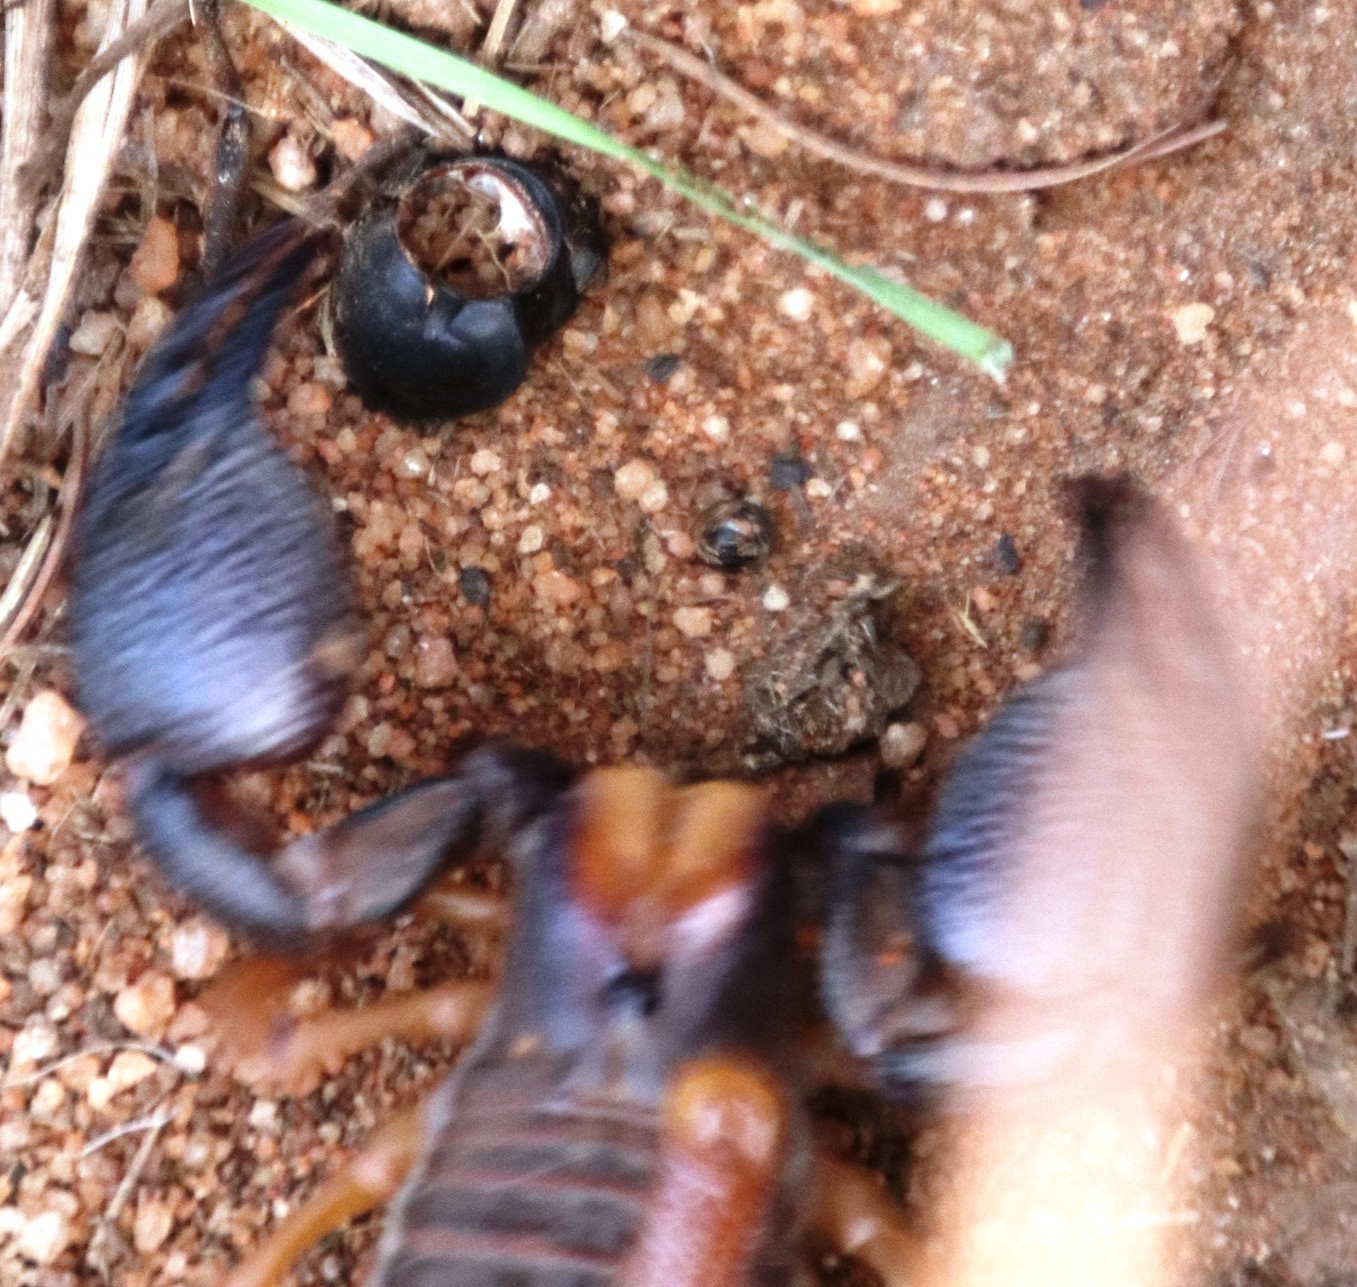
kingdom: Animalia
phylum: Arthropoda
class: Arachnida
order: Scorpiones
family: Scorpionidae
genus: Opistophthalmus
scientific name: Opistophthalmus pugnax
